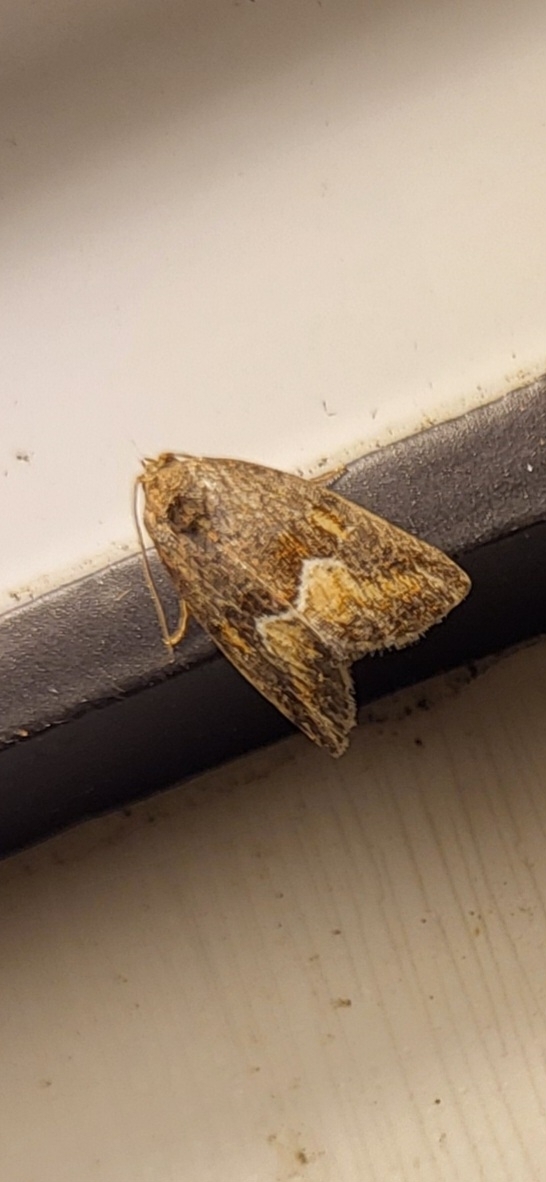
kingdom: Animalia
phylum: Arthropoda
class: Insecta
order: Lepidoptera
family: Noctuidae
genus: Deltote
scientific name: Deltote bellicula
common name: Bog glyph
